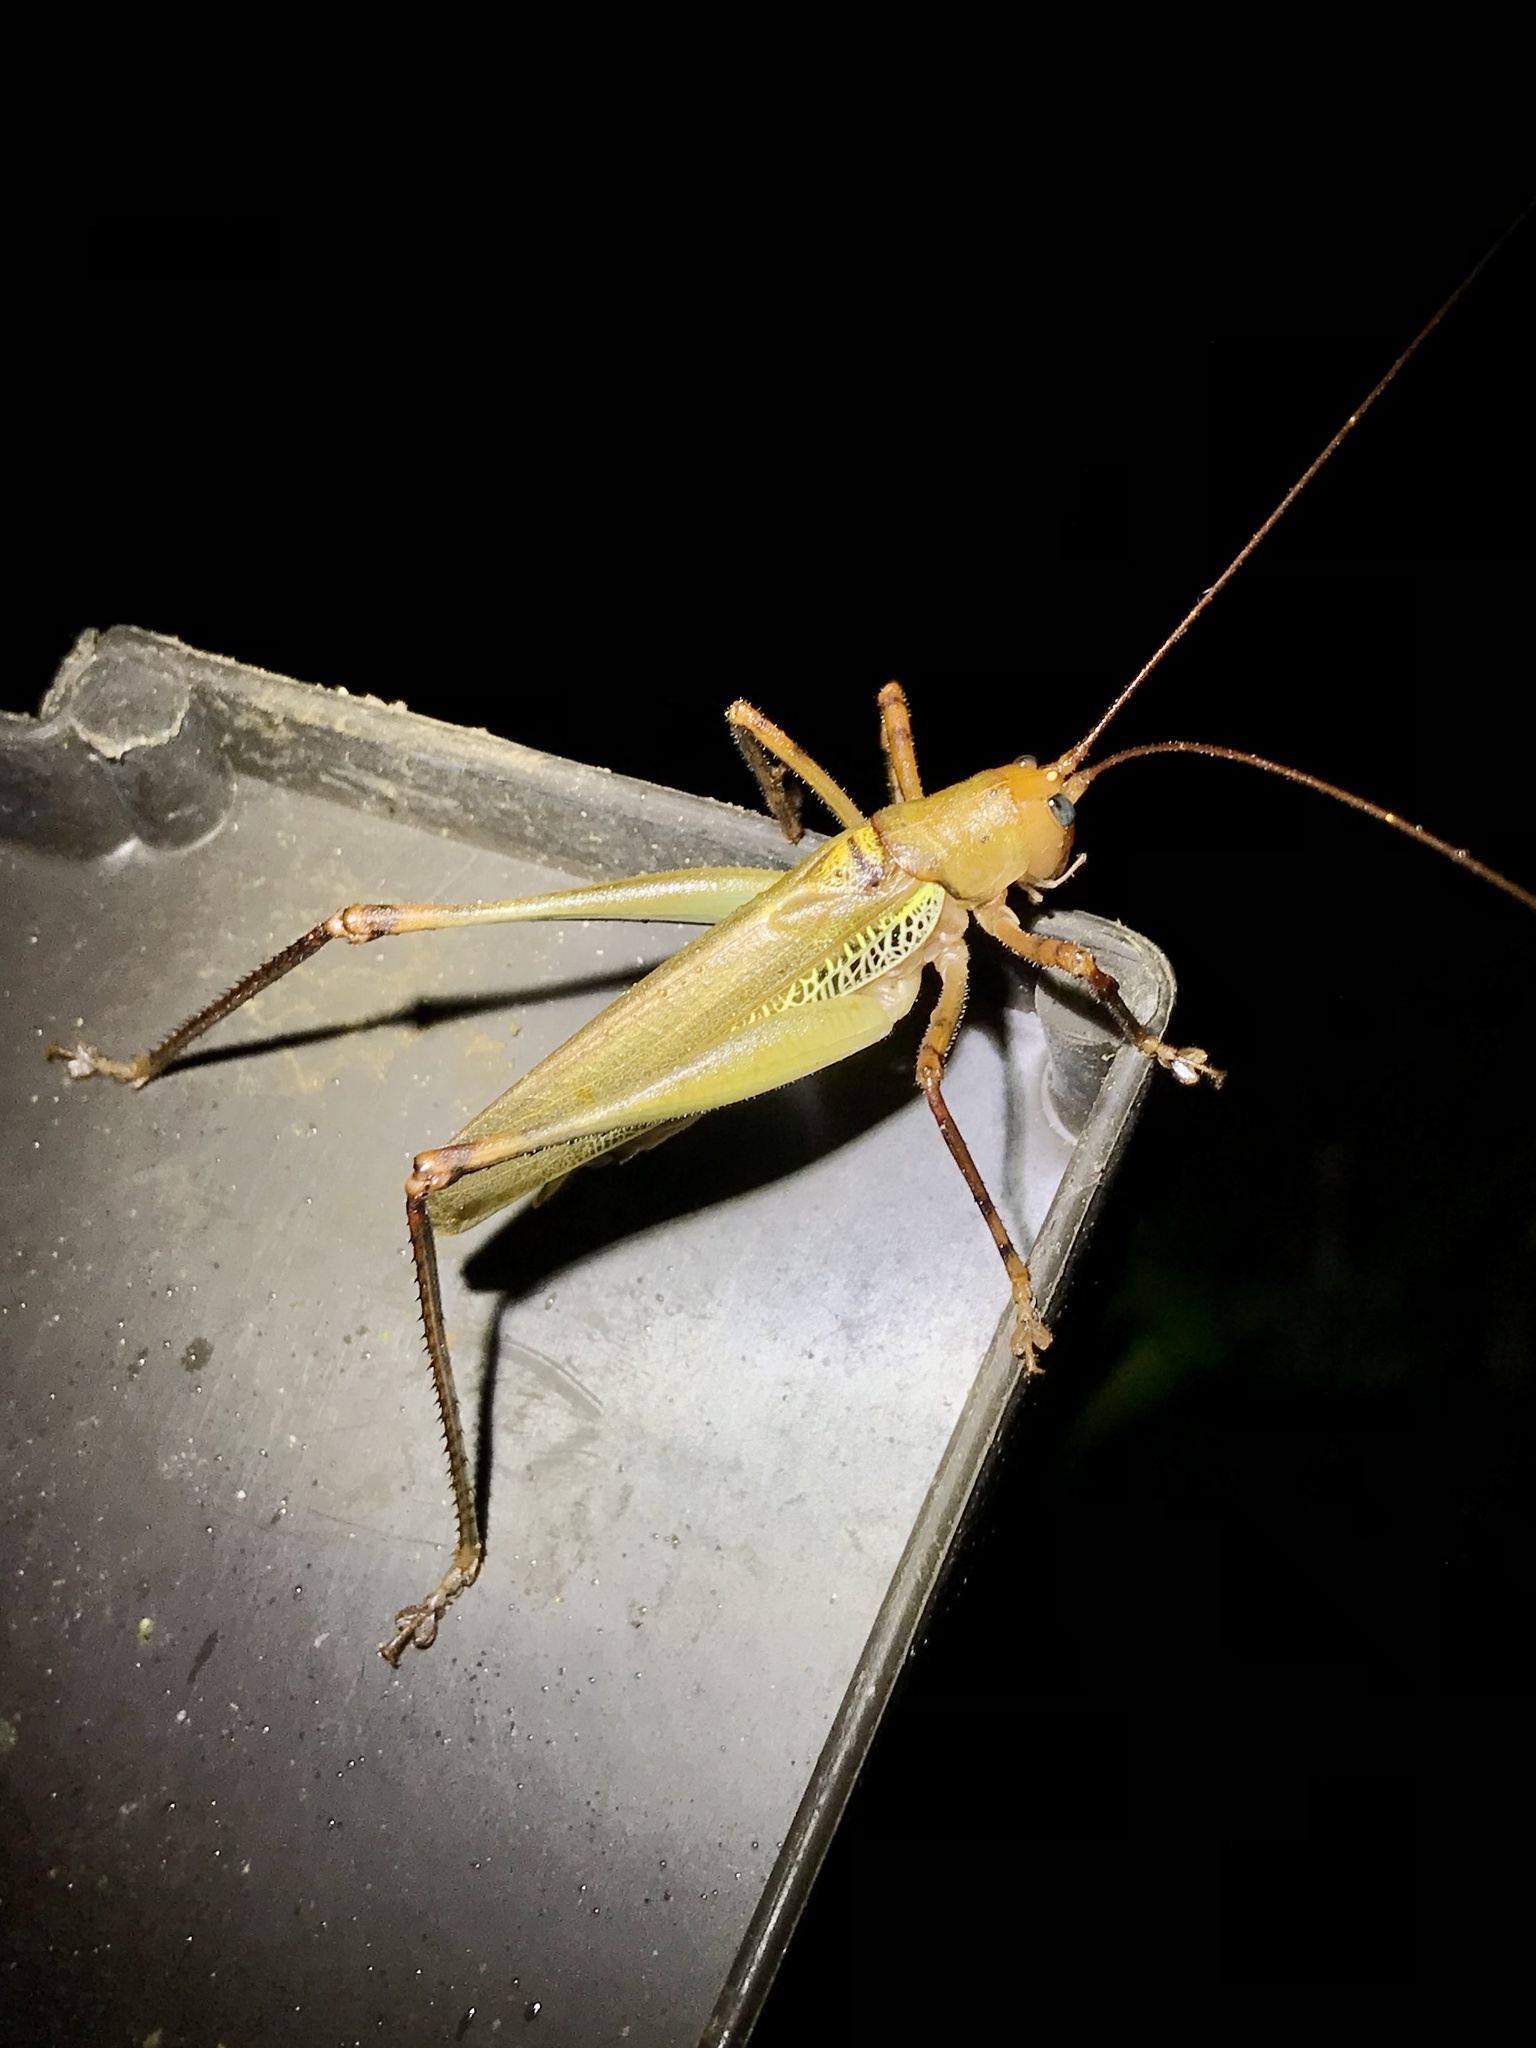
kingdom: Animalia
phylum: Arthropoda
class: Insecta
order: Orthoptera
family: Tettigoniidae
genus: Ischnomela
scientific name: Ischnomela pulchripennis
